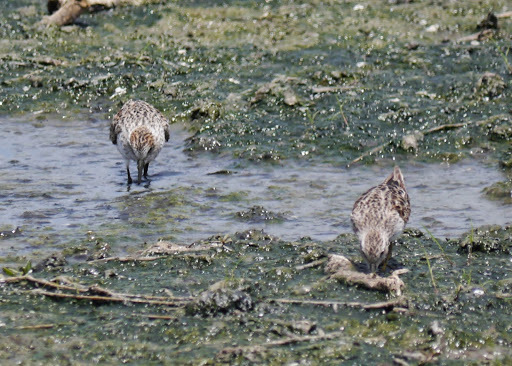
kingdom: Animalia
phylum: Chordata
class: Aves
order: Charadriiformes
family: Scolopacidae
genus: Calidris
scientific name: Calidris pusilla
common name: Semipalmated sandpiper
